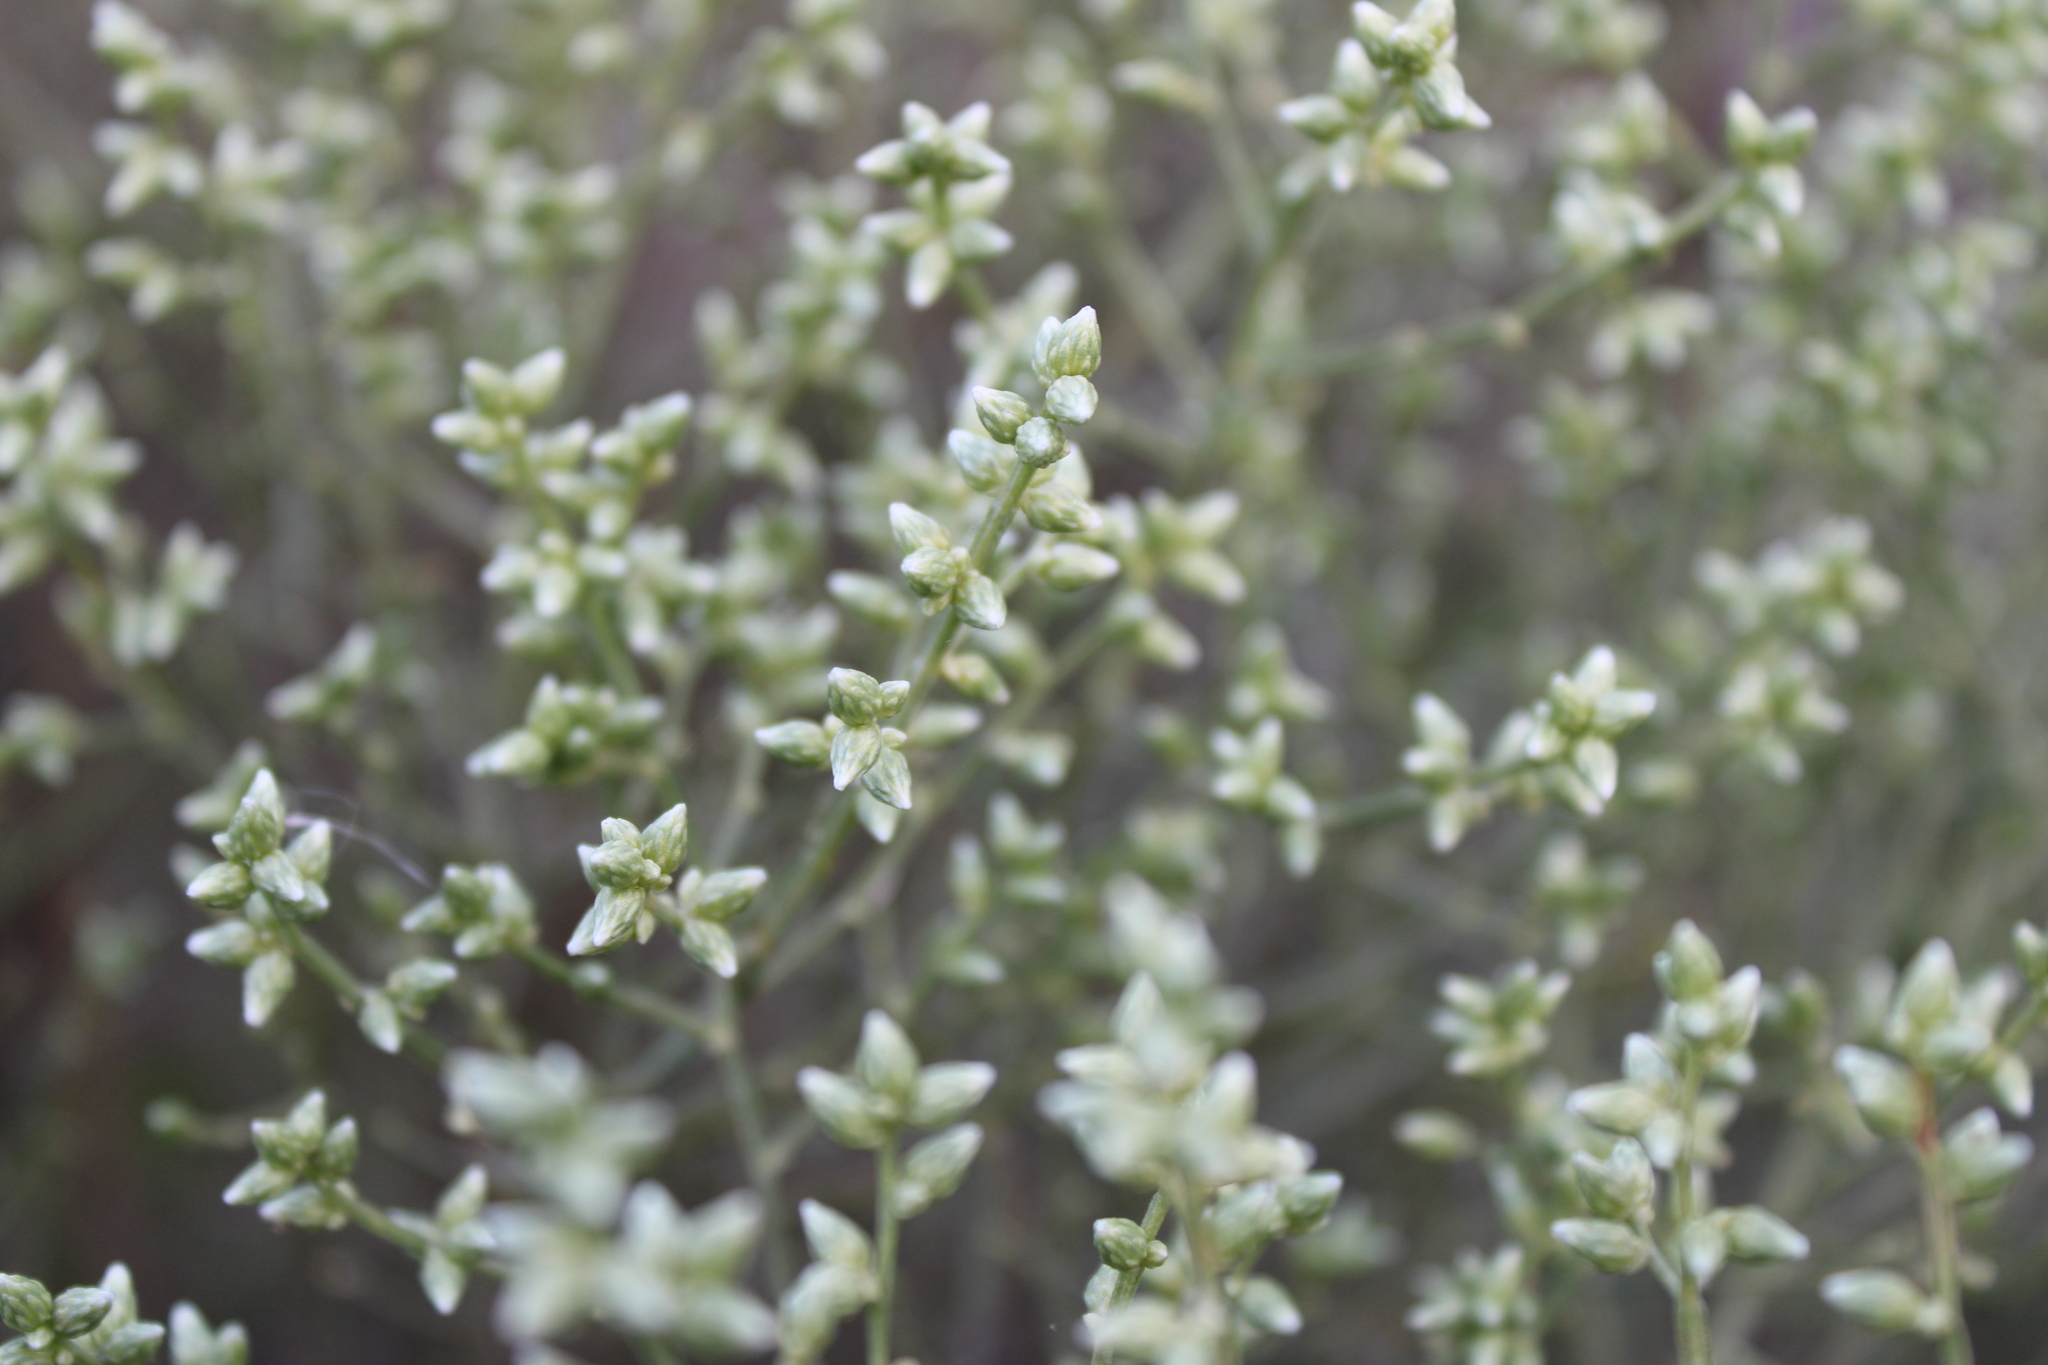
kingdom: Plantae
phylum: Tracheophyta
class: Magnoliopsida
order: Asterales
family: Asteraceae
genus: Baccharis
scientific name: Baccharis articulata
